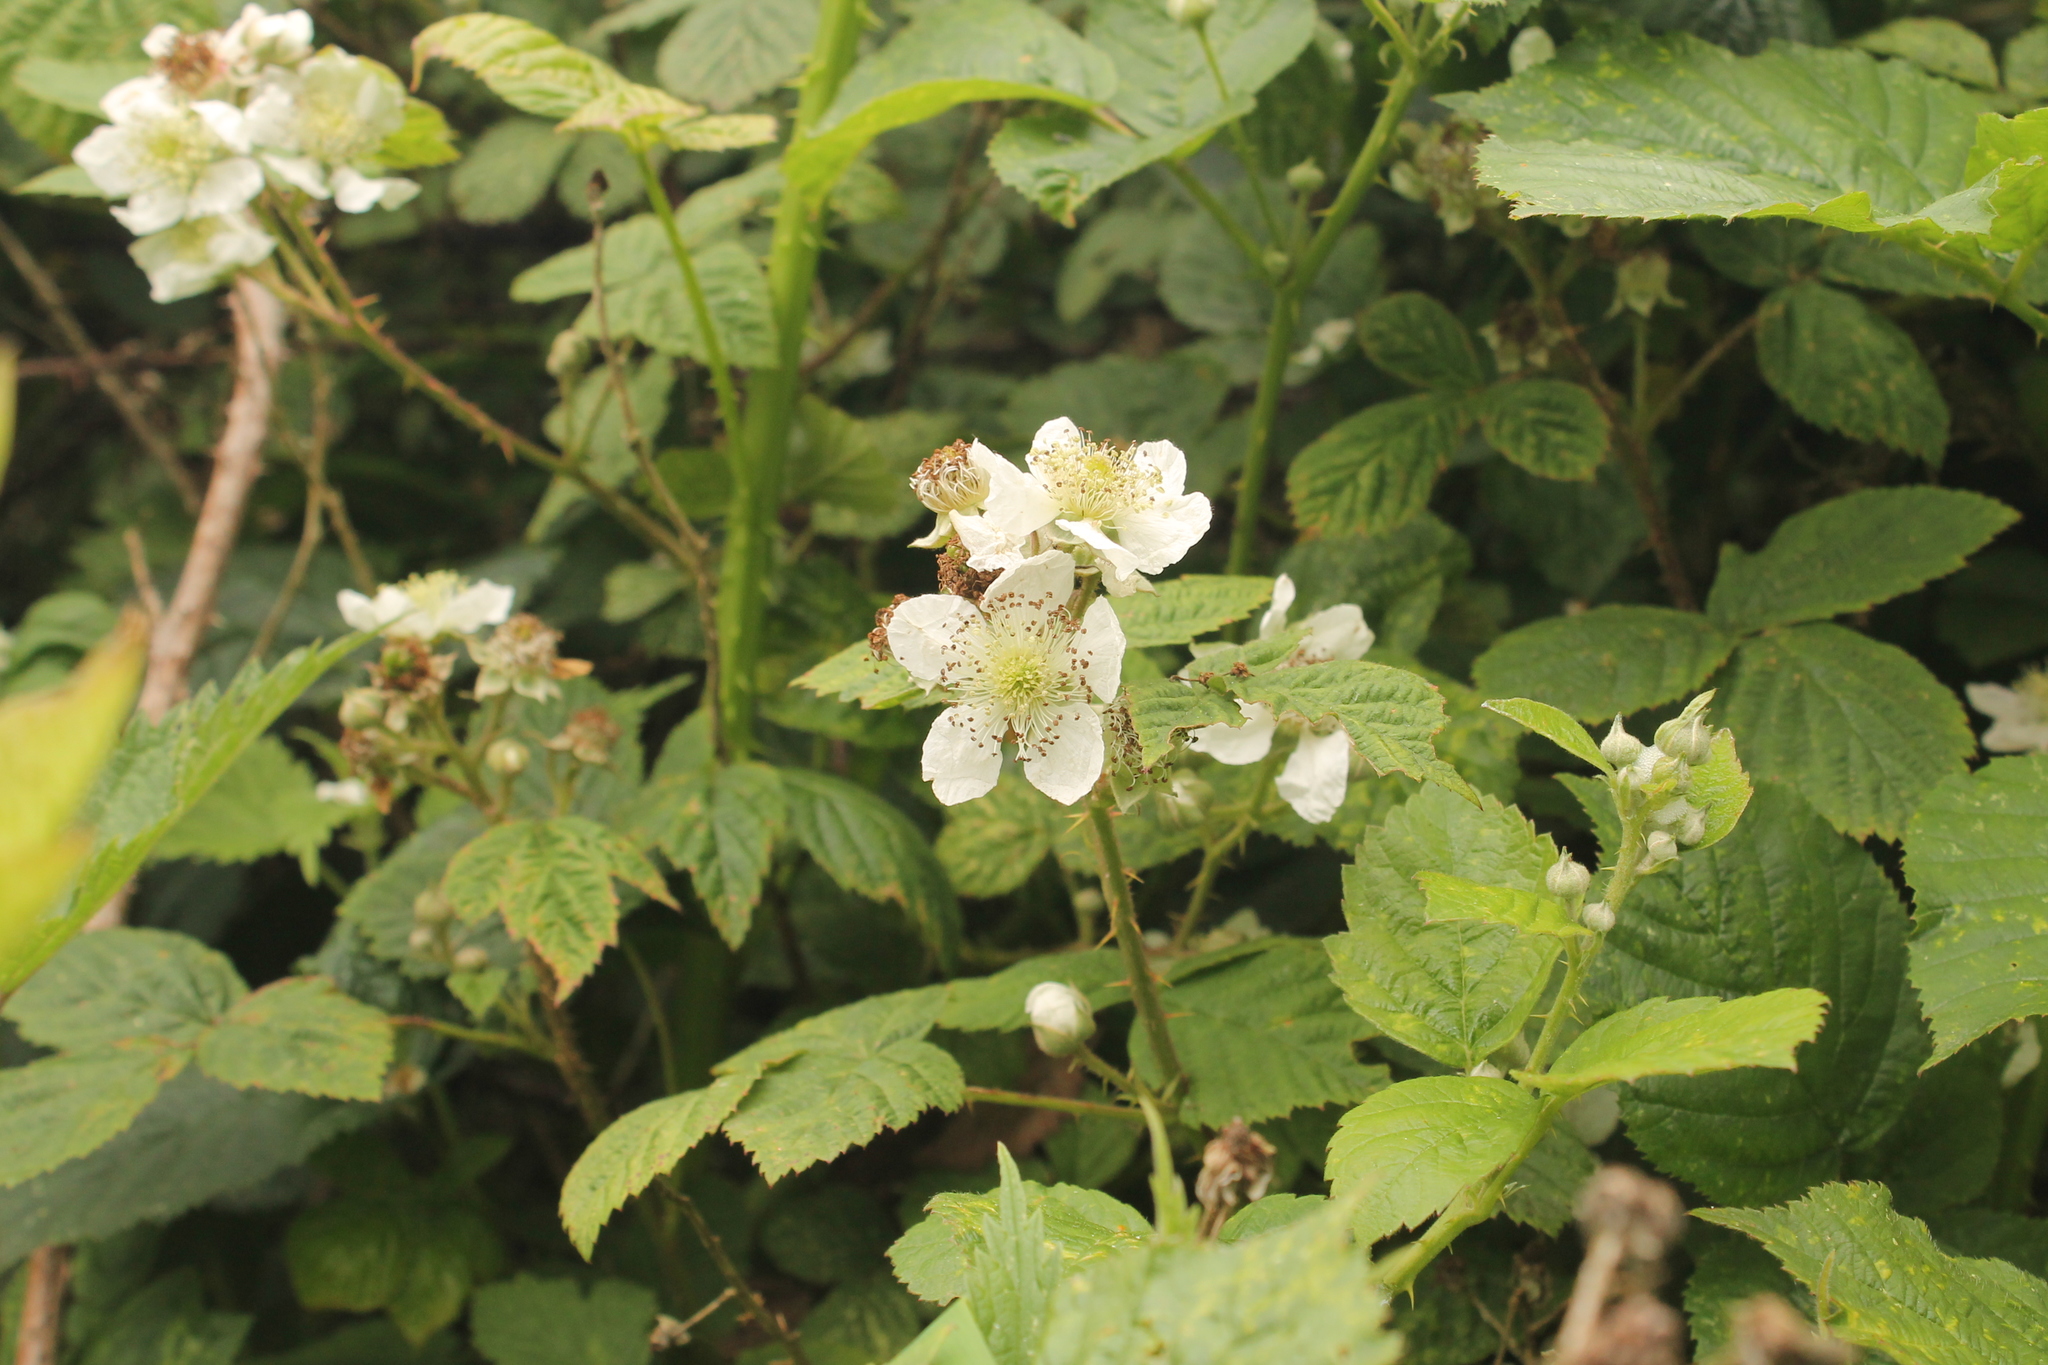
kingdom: Plantae
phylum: Tracheophyta
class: Magnoliopsida
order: Rosales
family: Rosaceae
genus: Rubus
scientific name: Rubus horrefactus
